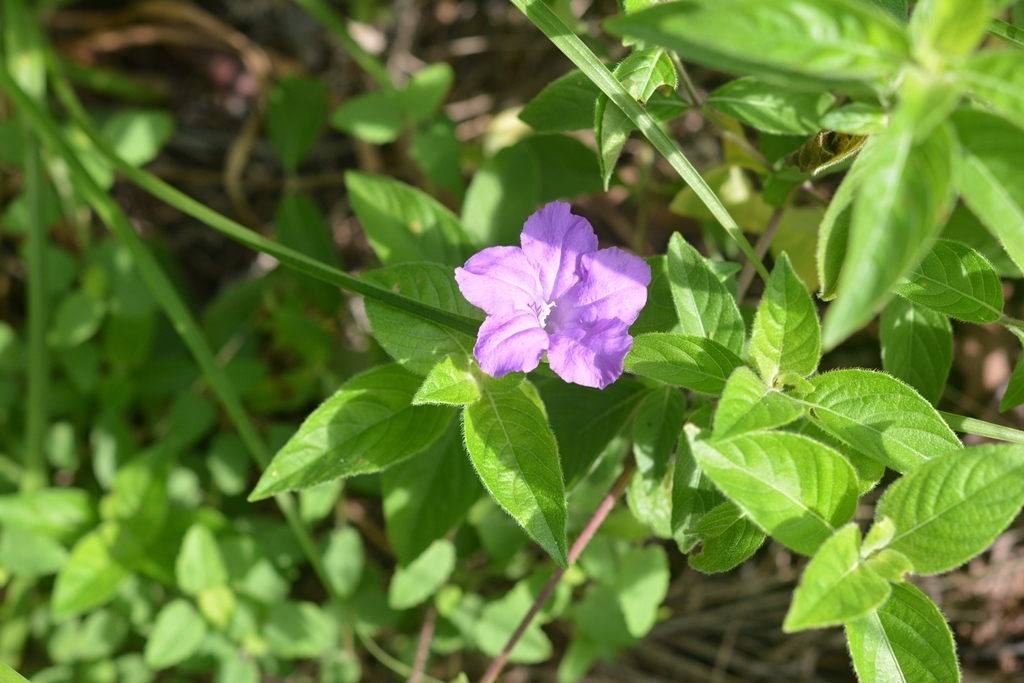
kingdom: Plantae
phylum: Tracheophyta
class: Magnoliopsida
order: Lamiales
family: Acanthaceae
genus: Ruellia
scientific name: Ruellia lactea
